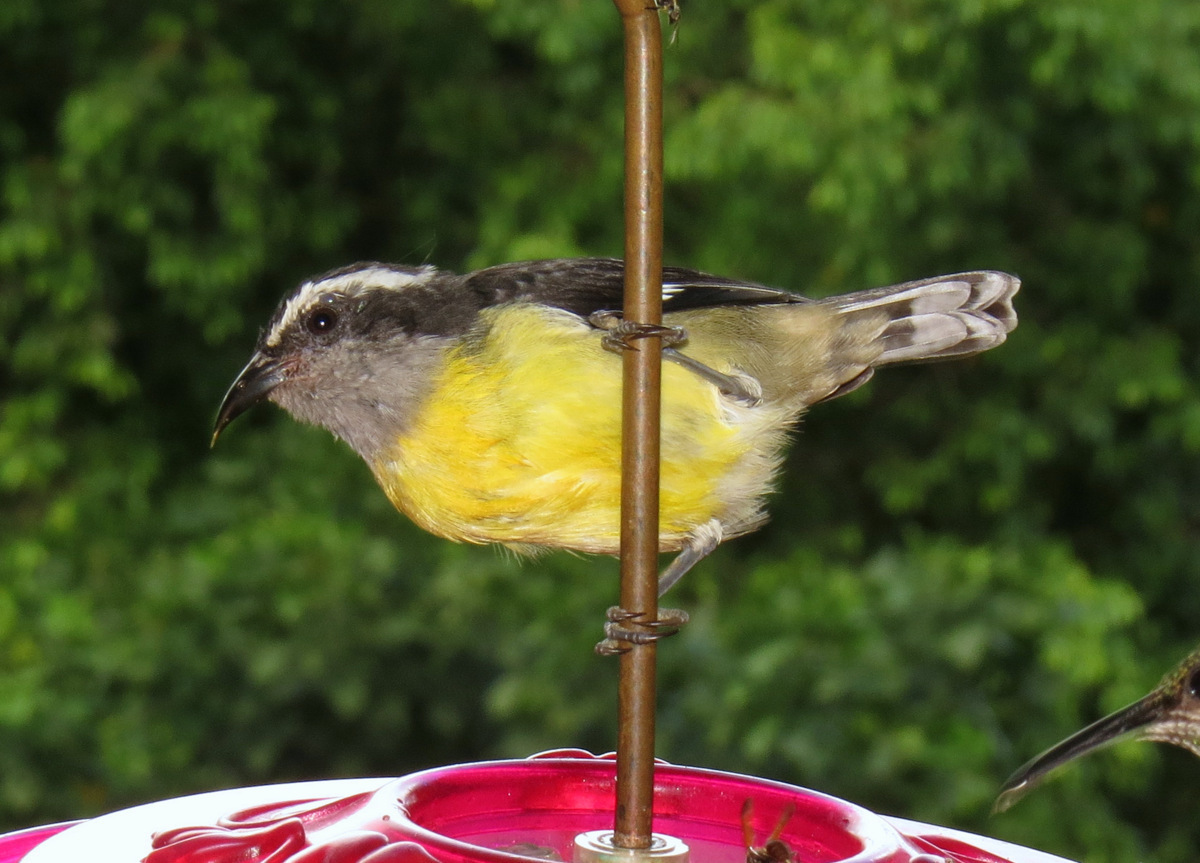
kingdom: Animalia
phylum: Chordata
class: Aves
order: Passeriformes
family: Thraupidae
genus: Coereba
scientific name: Coereba flaveola
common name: Bananaquit
